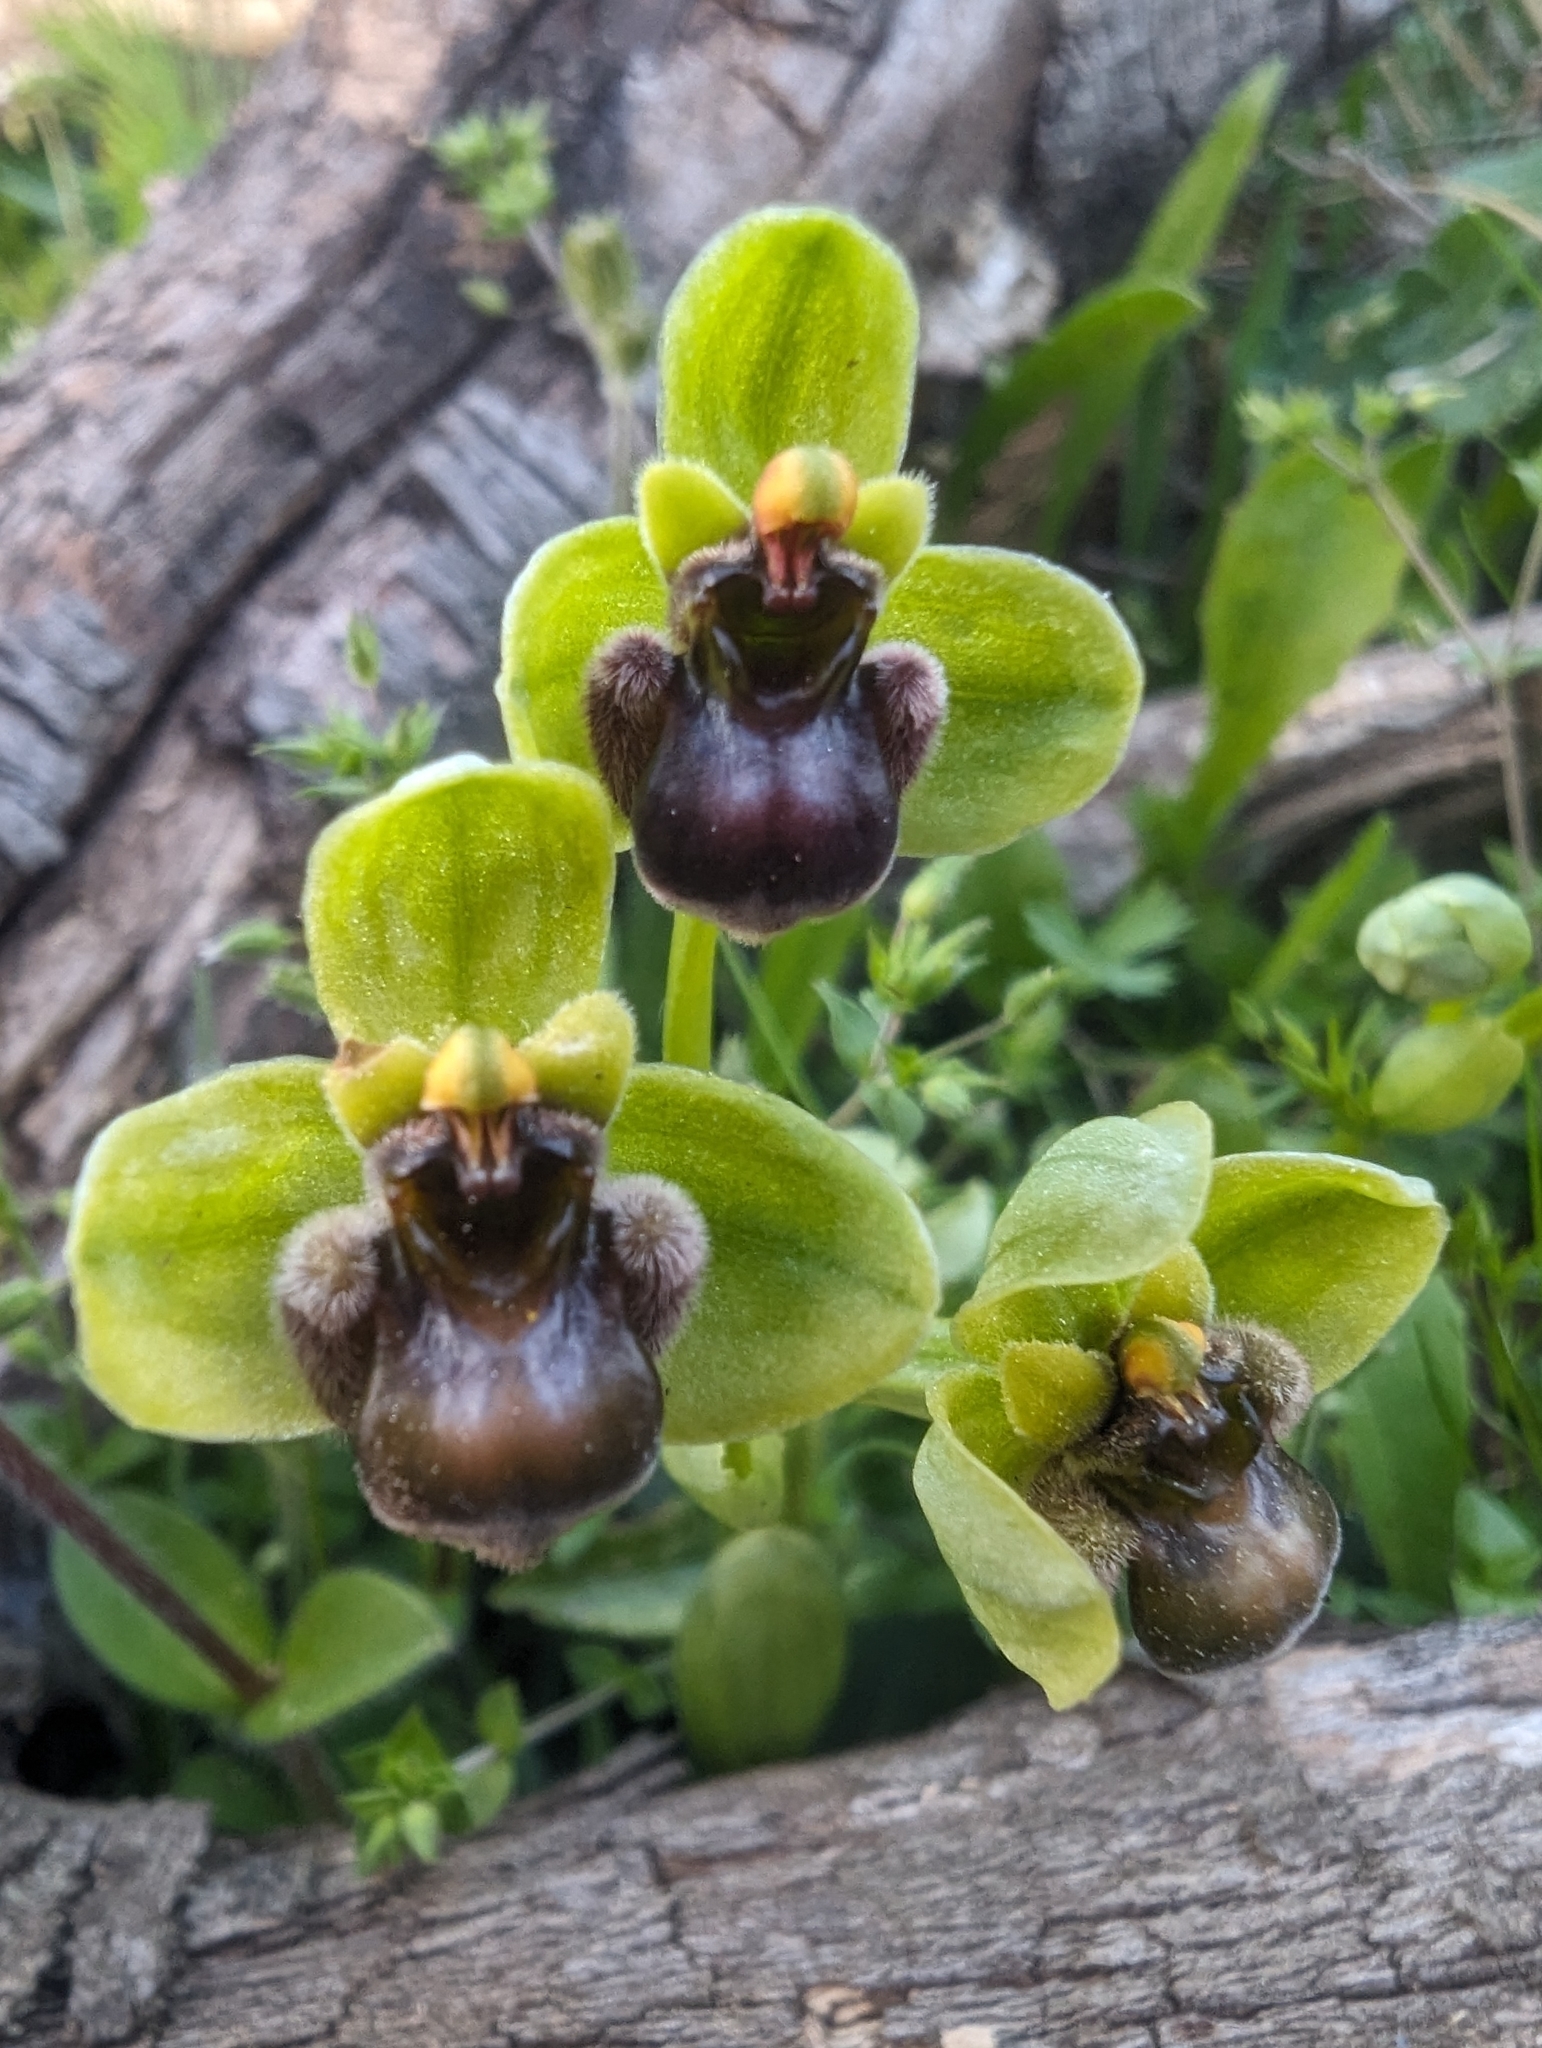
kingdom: Plantae
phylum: Tracheophyta
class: Liliopsida
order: Asparagales
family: Orchidaceae
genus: Ophrys
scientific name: Ophrys bombyliflora
